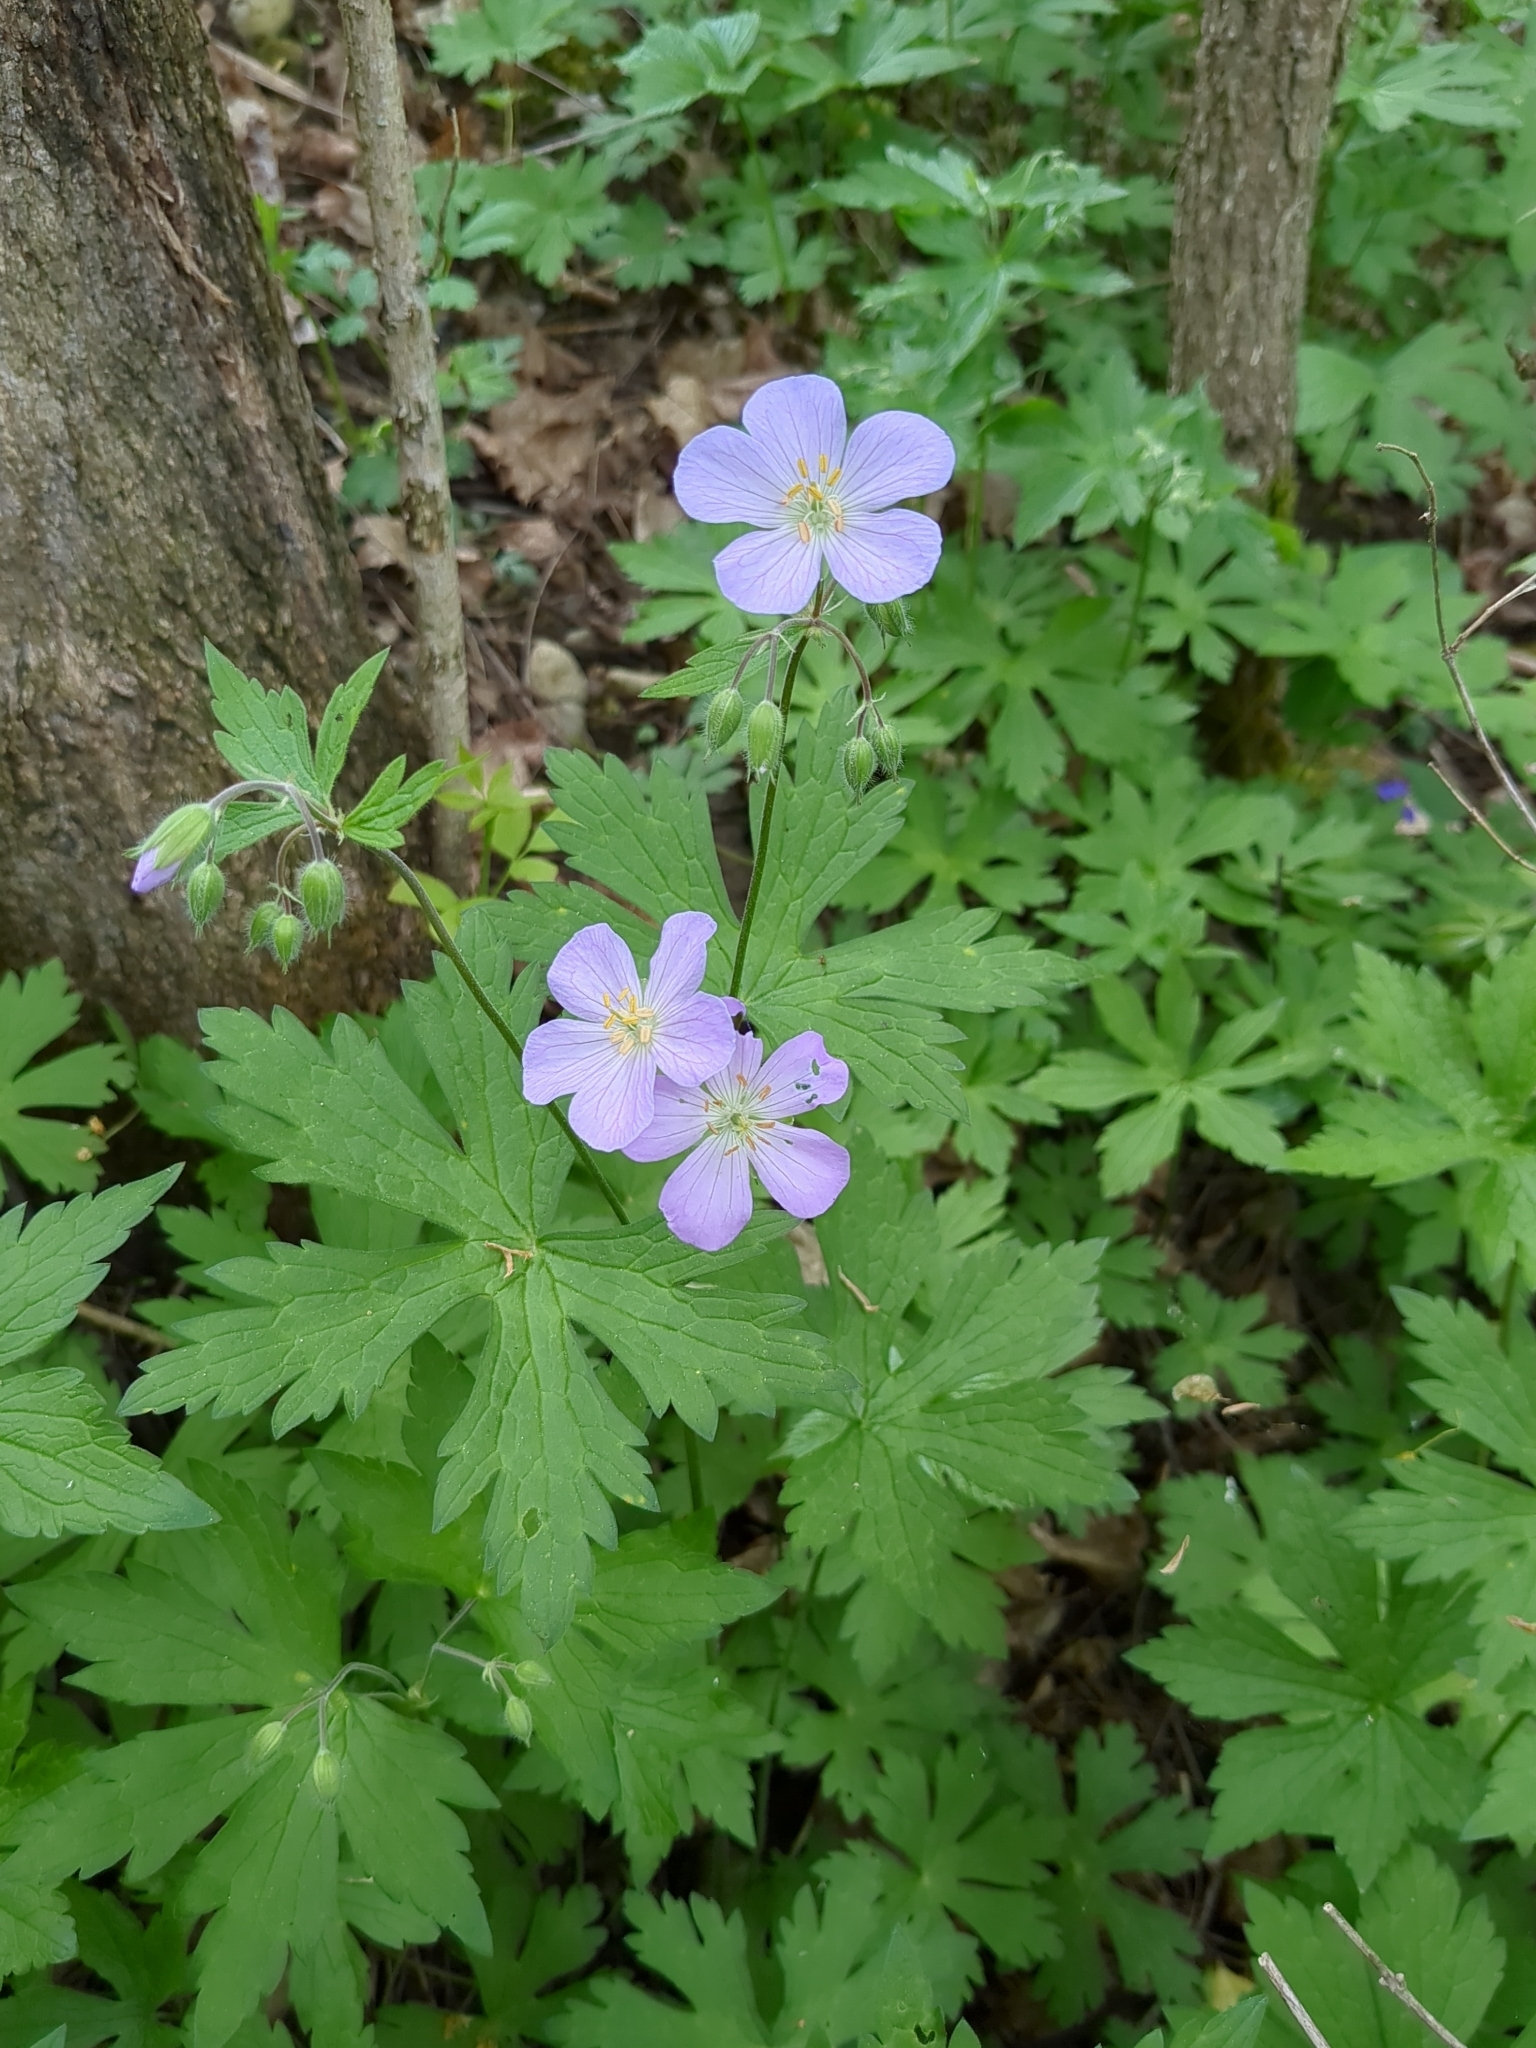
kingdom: Plantae
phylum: Tracheophyta
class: Magnoliopsida
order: Geraniales
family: Geraniaceae
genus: Geranium
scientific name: Geranium maculatum
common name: Spotted geranium
